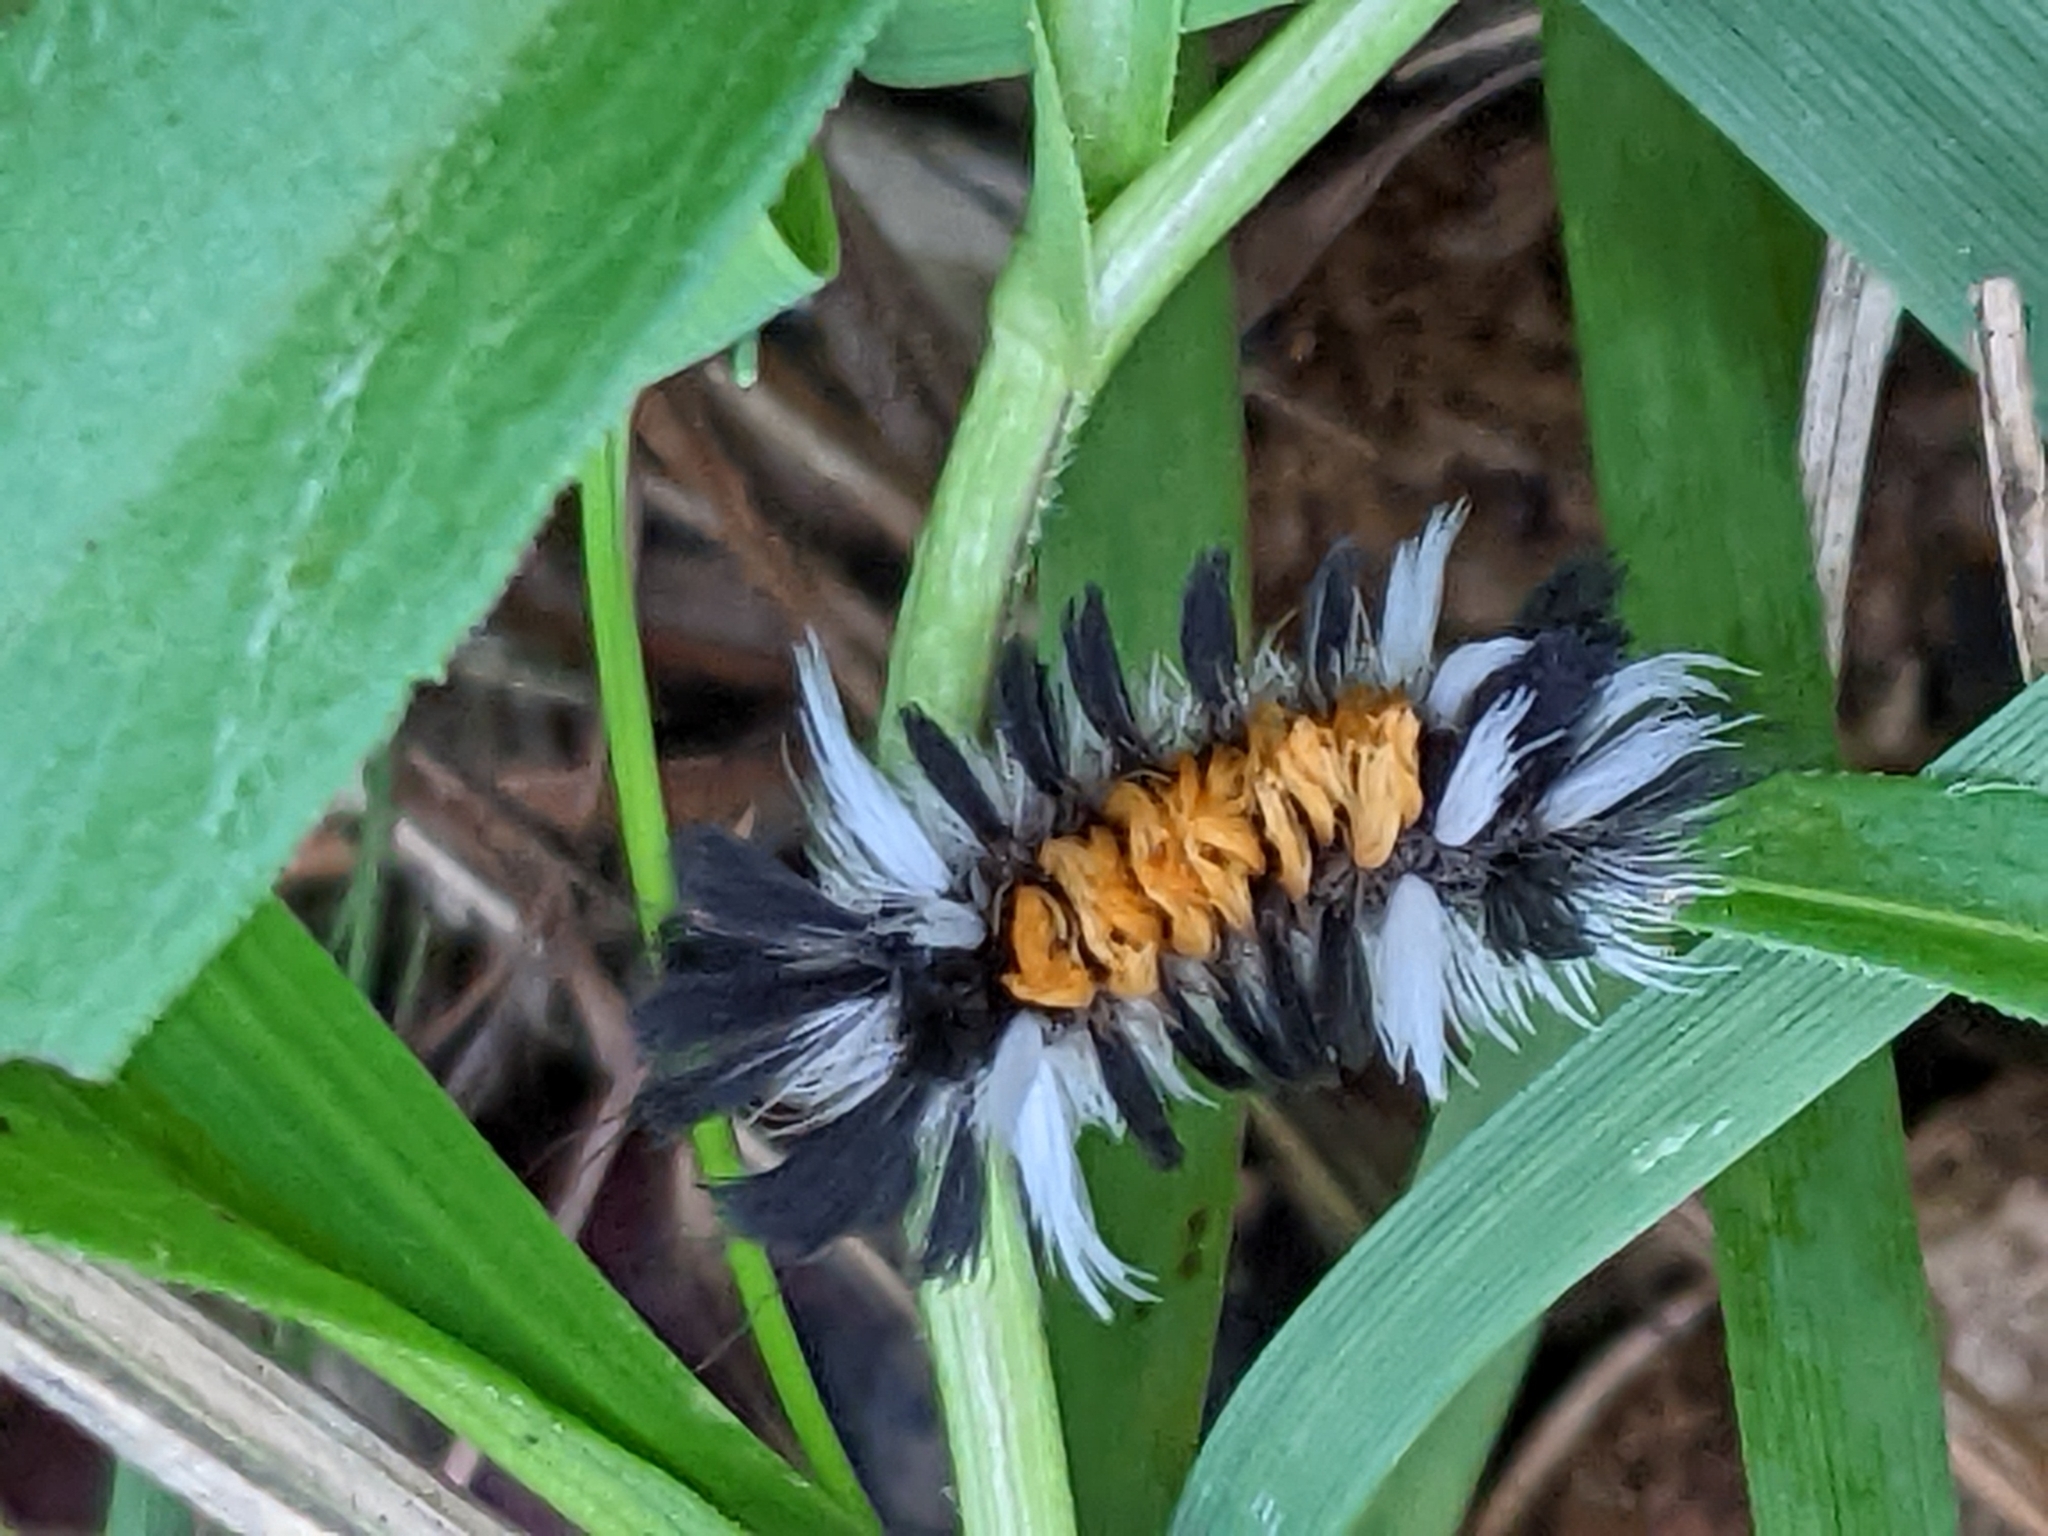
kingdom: Animalia
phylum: Arthropoda
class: Insecta
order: Lepidoptera
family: Erebidae
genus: Euchaetes
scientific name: Euchaetes egle
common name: Milkweed tussock moth
